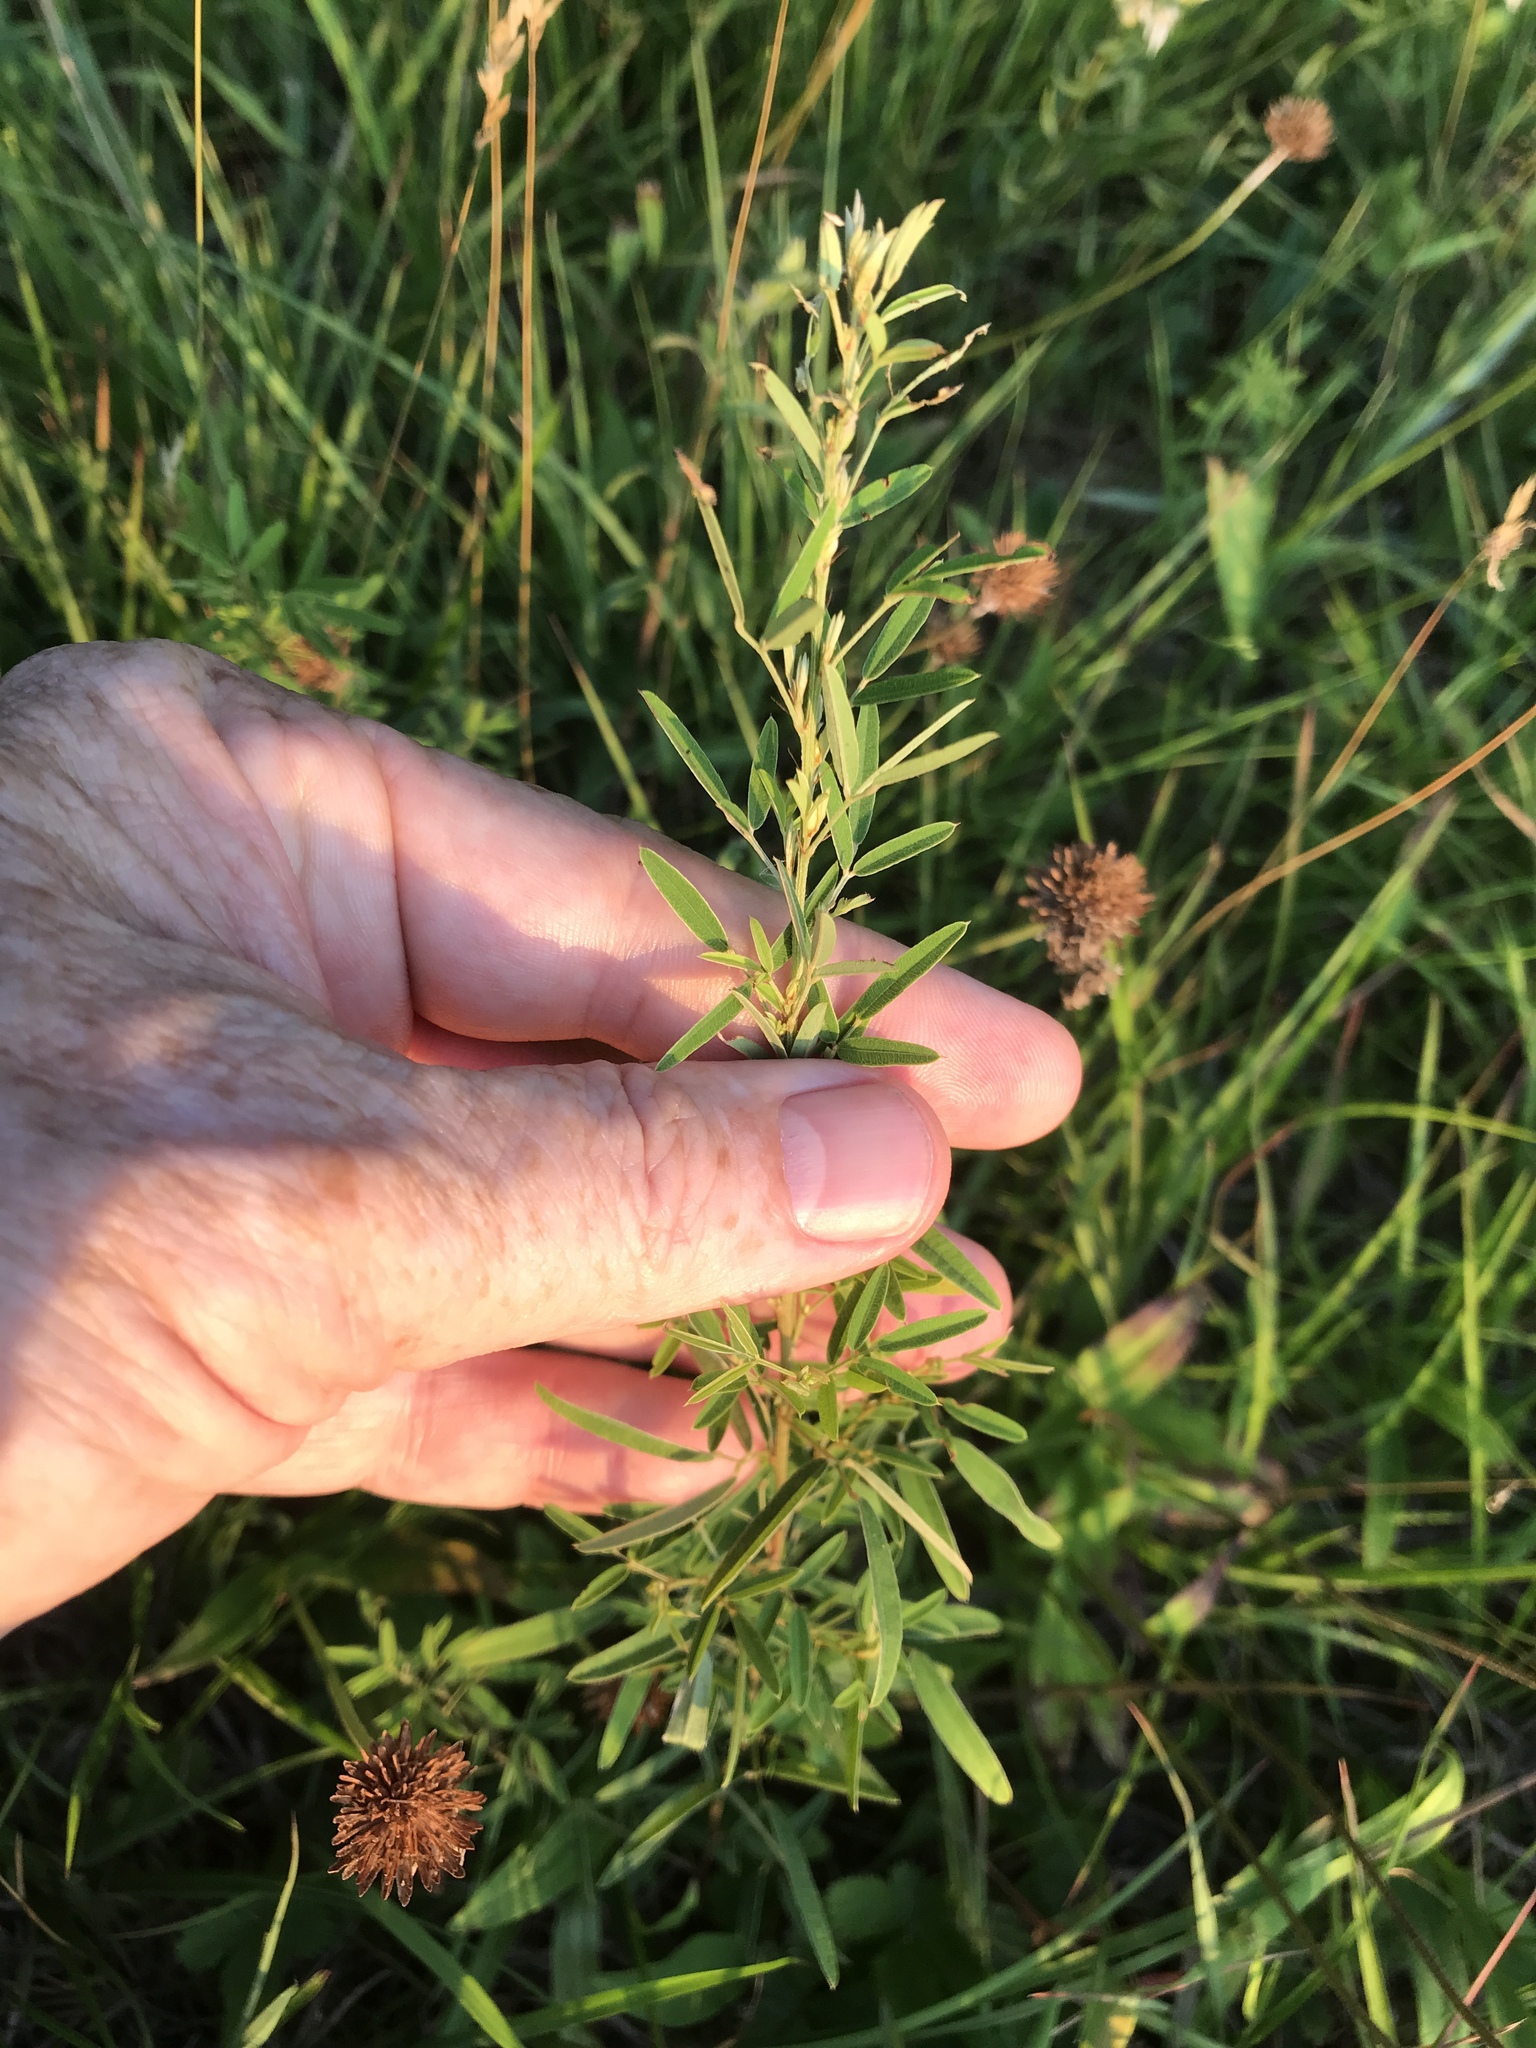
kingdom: Plantae
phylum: Tracheophyta
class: Magnoliopsida
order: Fabales
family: Fabaceae
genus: Lespedeza
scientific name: Lespedeza virginica
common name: Slender bush-clover
